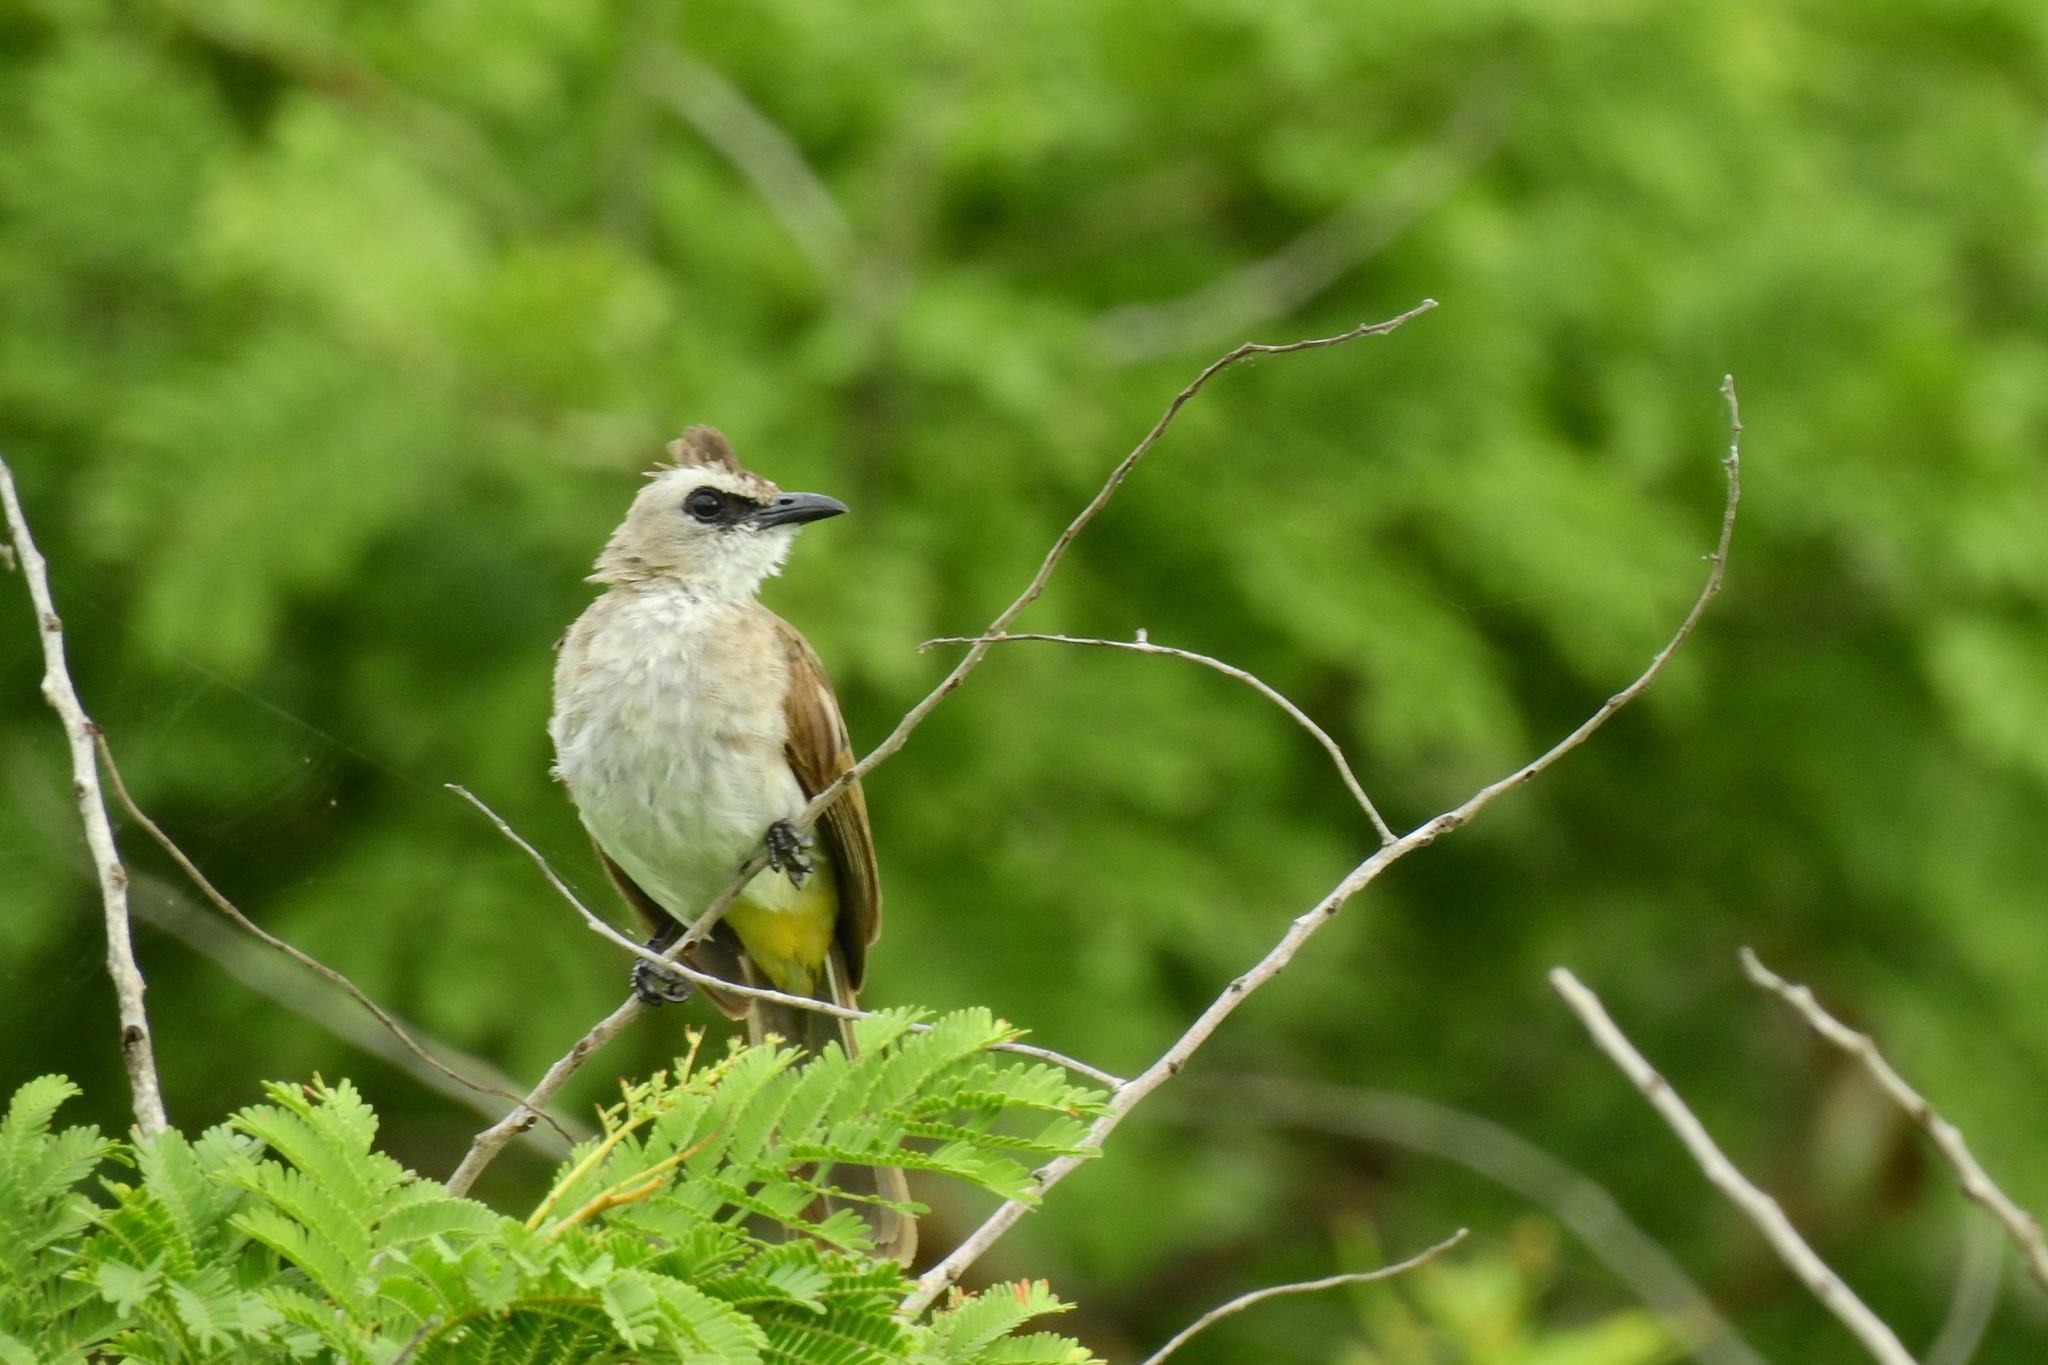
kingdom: Animalia
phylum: Chordata
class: Aves
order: Passeriformes
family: Pycnonotidae
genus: Pycnonotus
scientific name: Pycnonotus goiavier
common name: Yellow-vented bulbul
